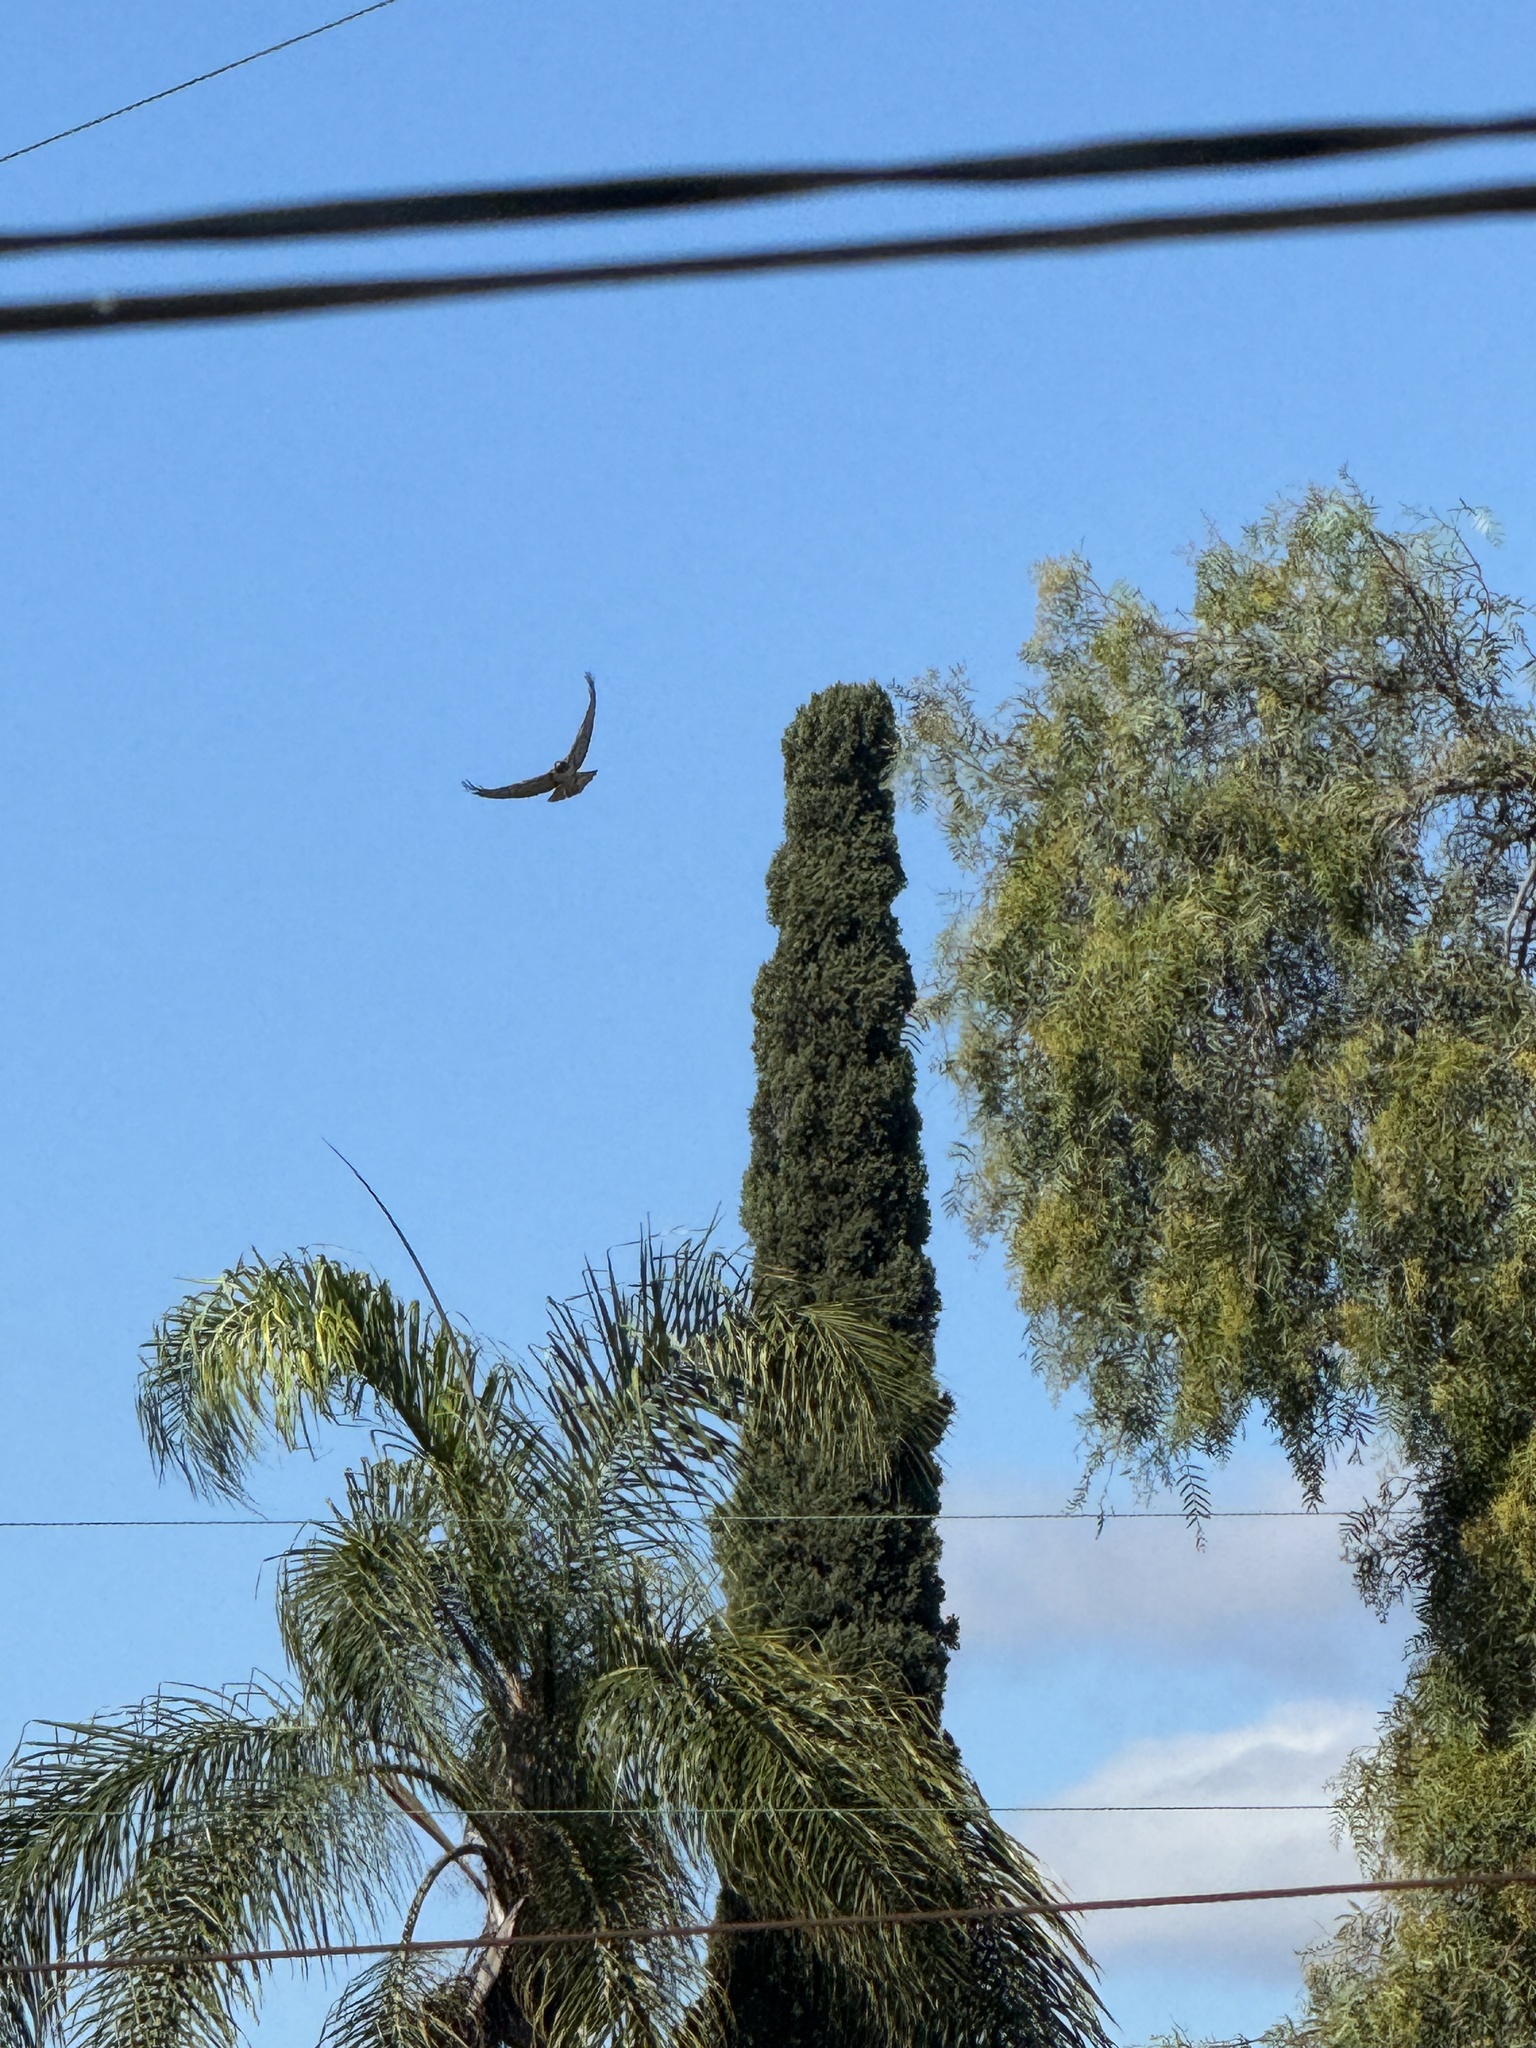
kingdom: Animalia
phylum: Chordata
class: Aves
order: Accipitriformes
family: Accipitridae
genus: Buteo
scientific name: Buteo jamaicensis
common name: Red-tailed hawk
